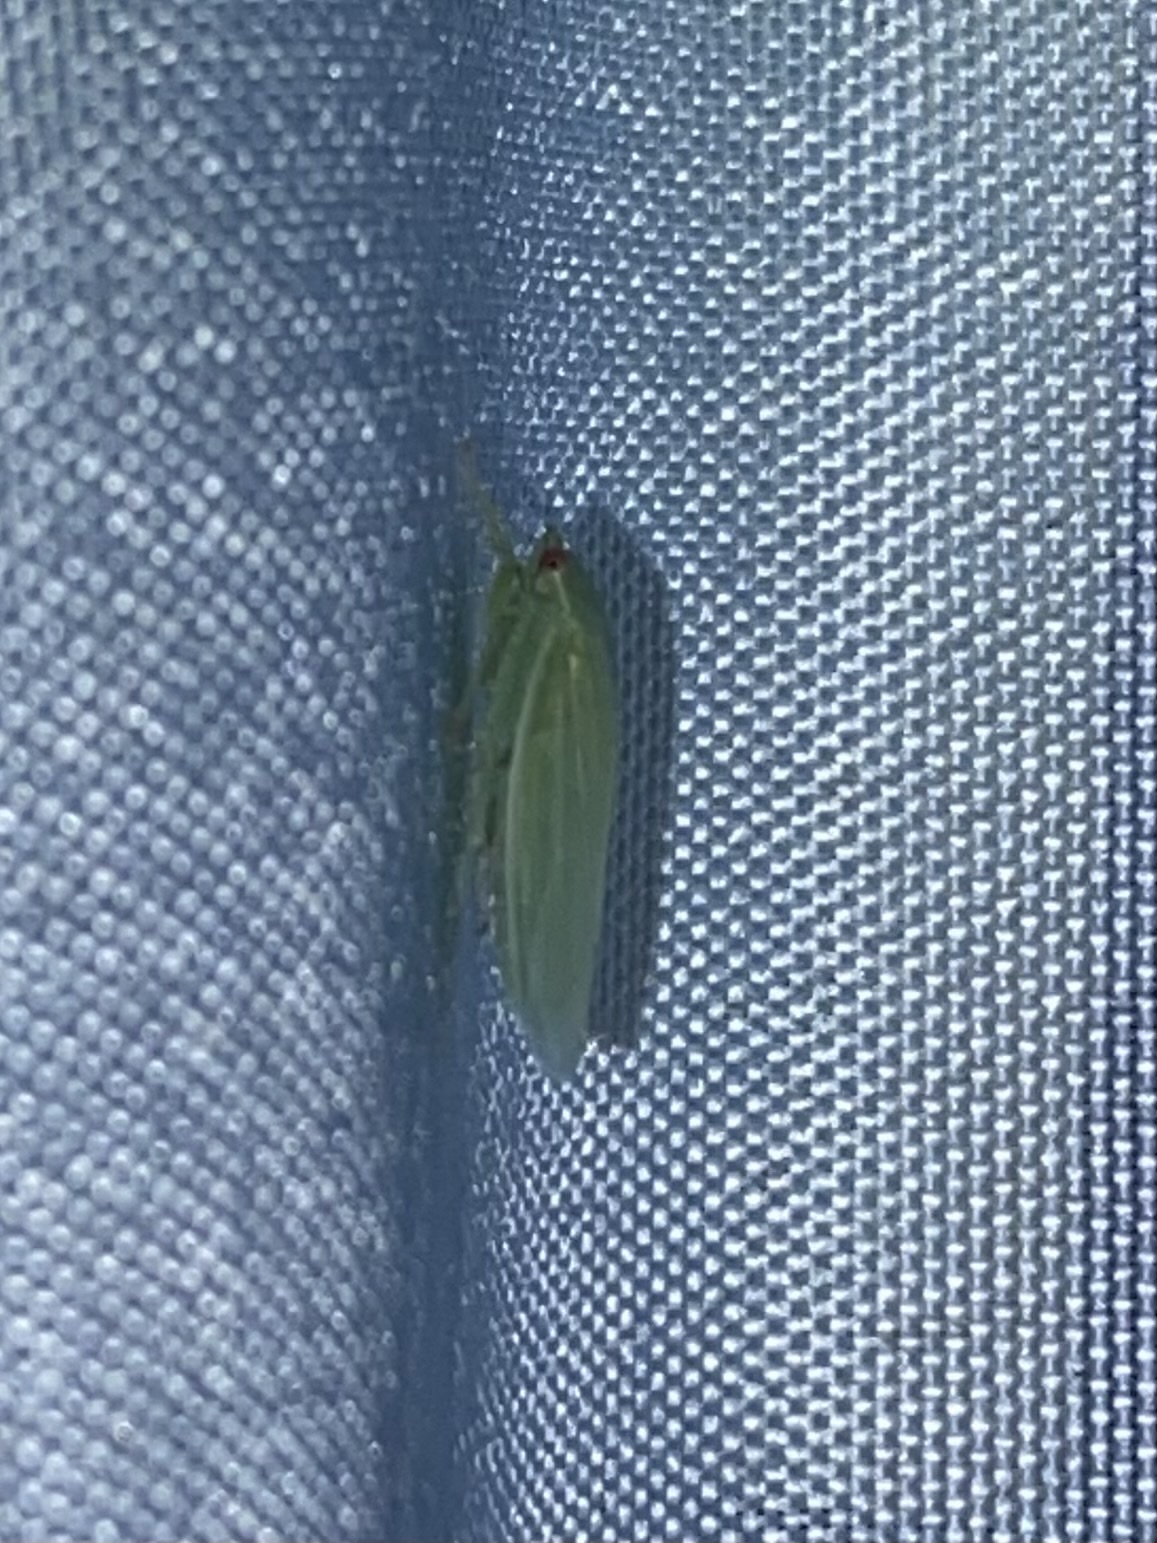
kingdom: Animalia
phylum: Arthropoda
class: Insecta
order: Hemiptera
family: Cicadellidae
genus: Gyponana
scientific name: Gyponana
